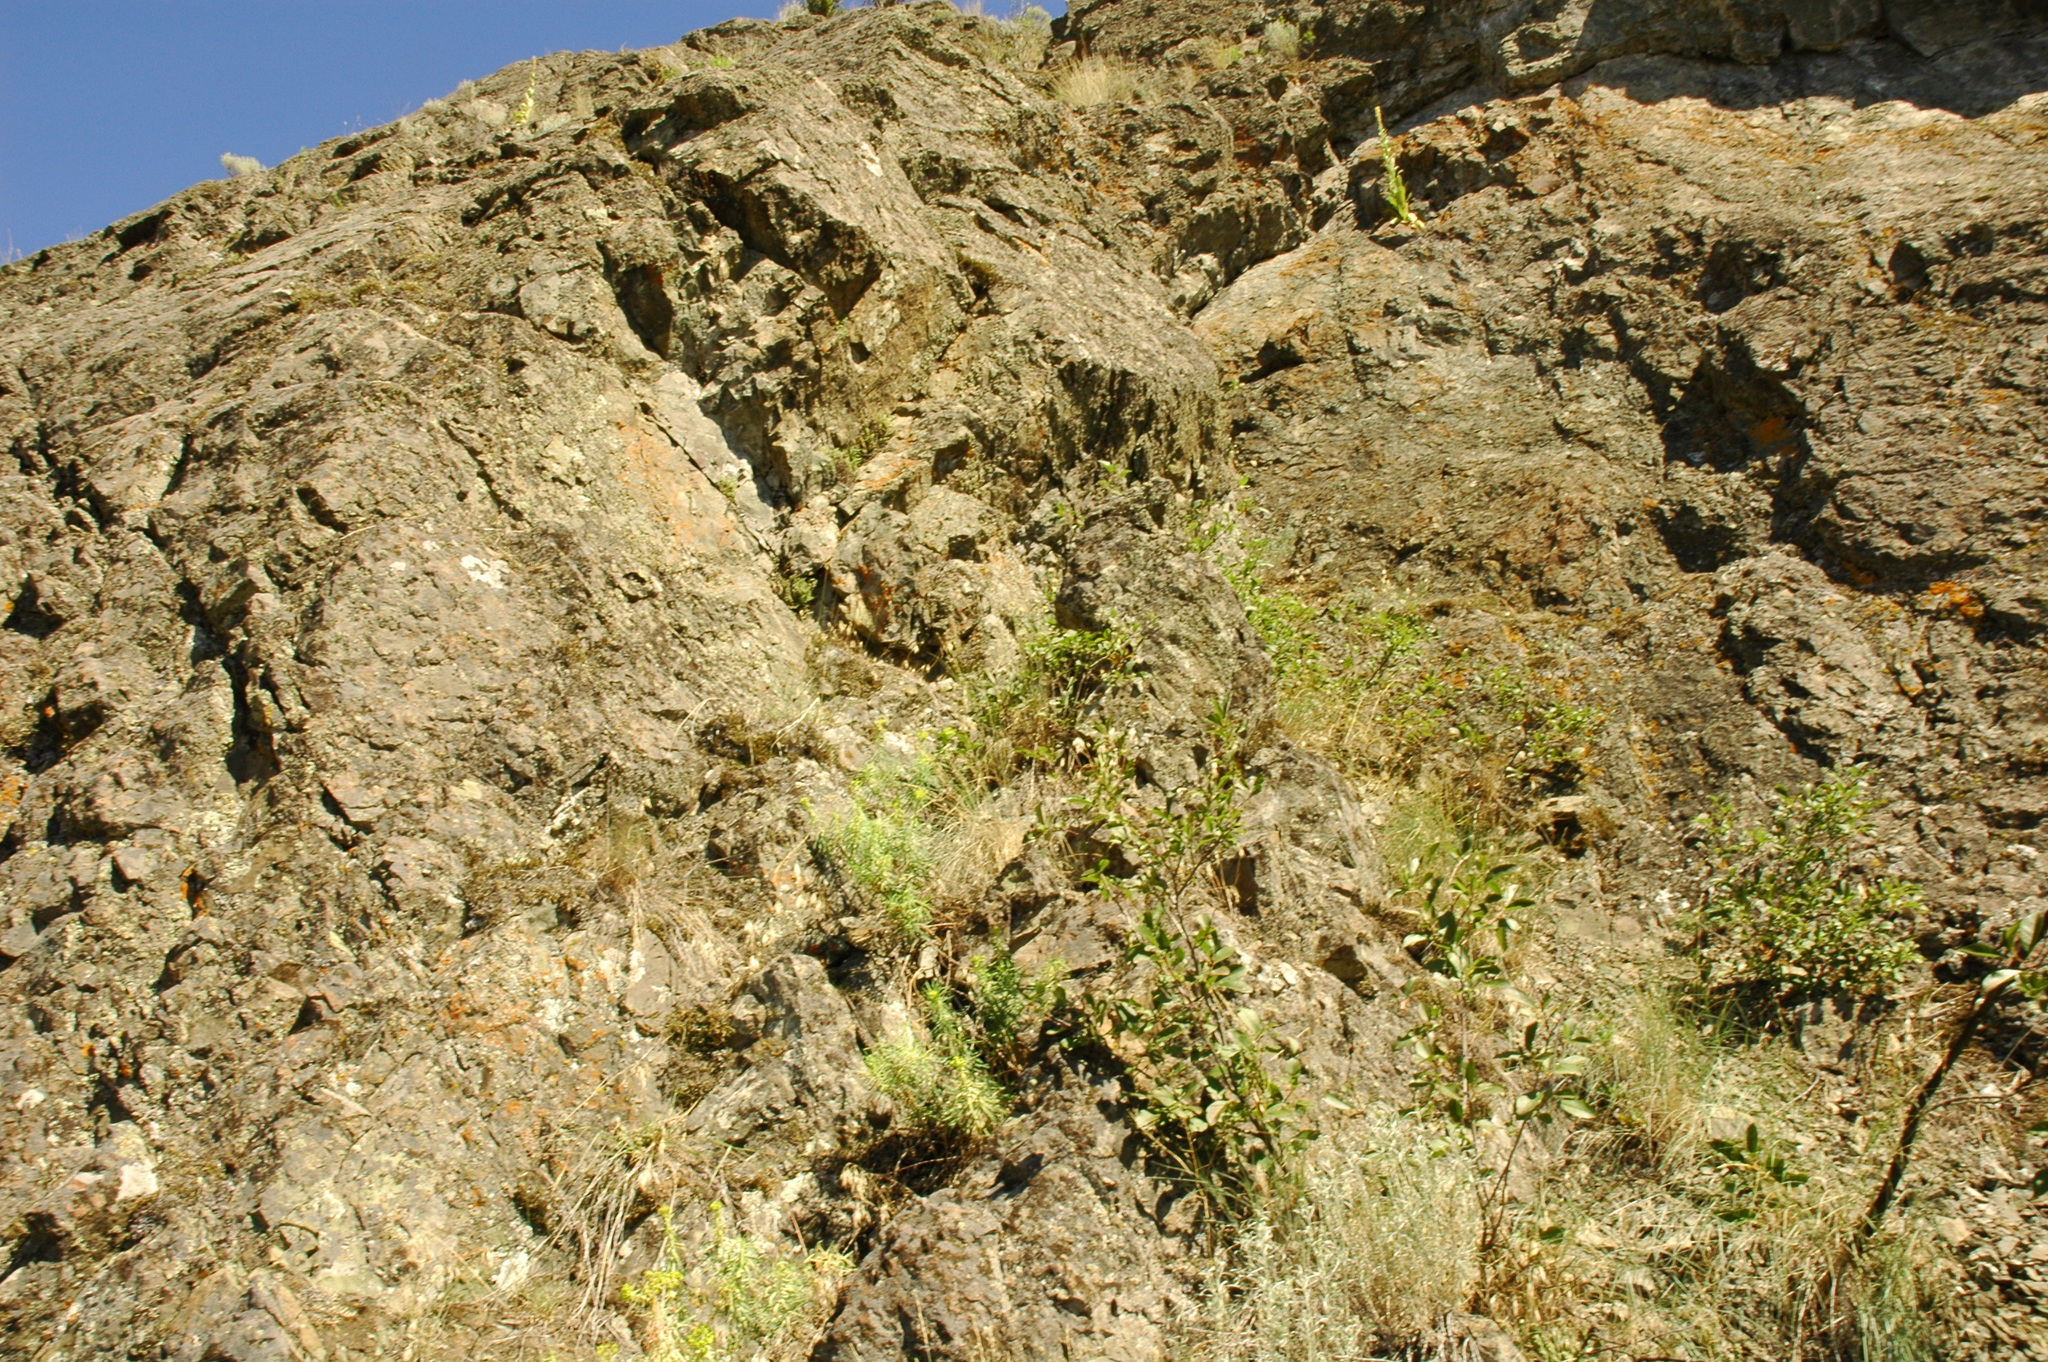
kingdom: Plantae
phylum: Tracheophyta
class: Polypodiopsida
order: Polypodiales
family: Pteridaceae
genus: Myriopteris
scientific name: Myriopteris gracilis
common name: Fee's lip fern
